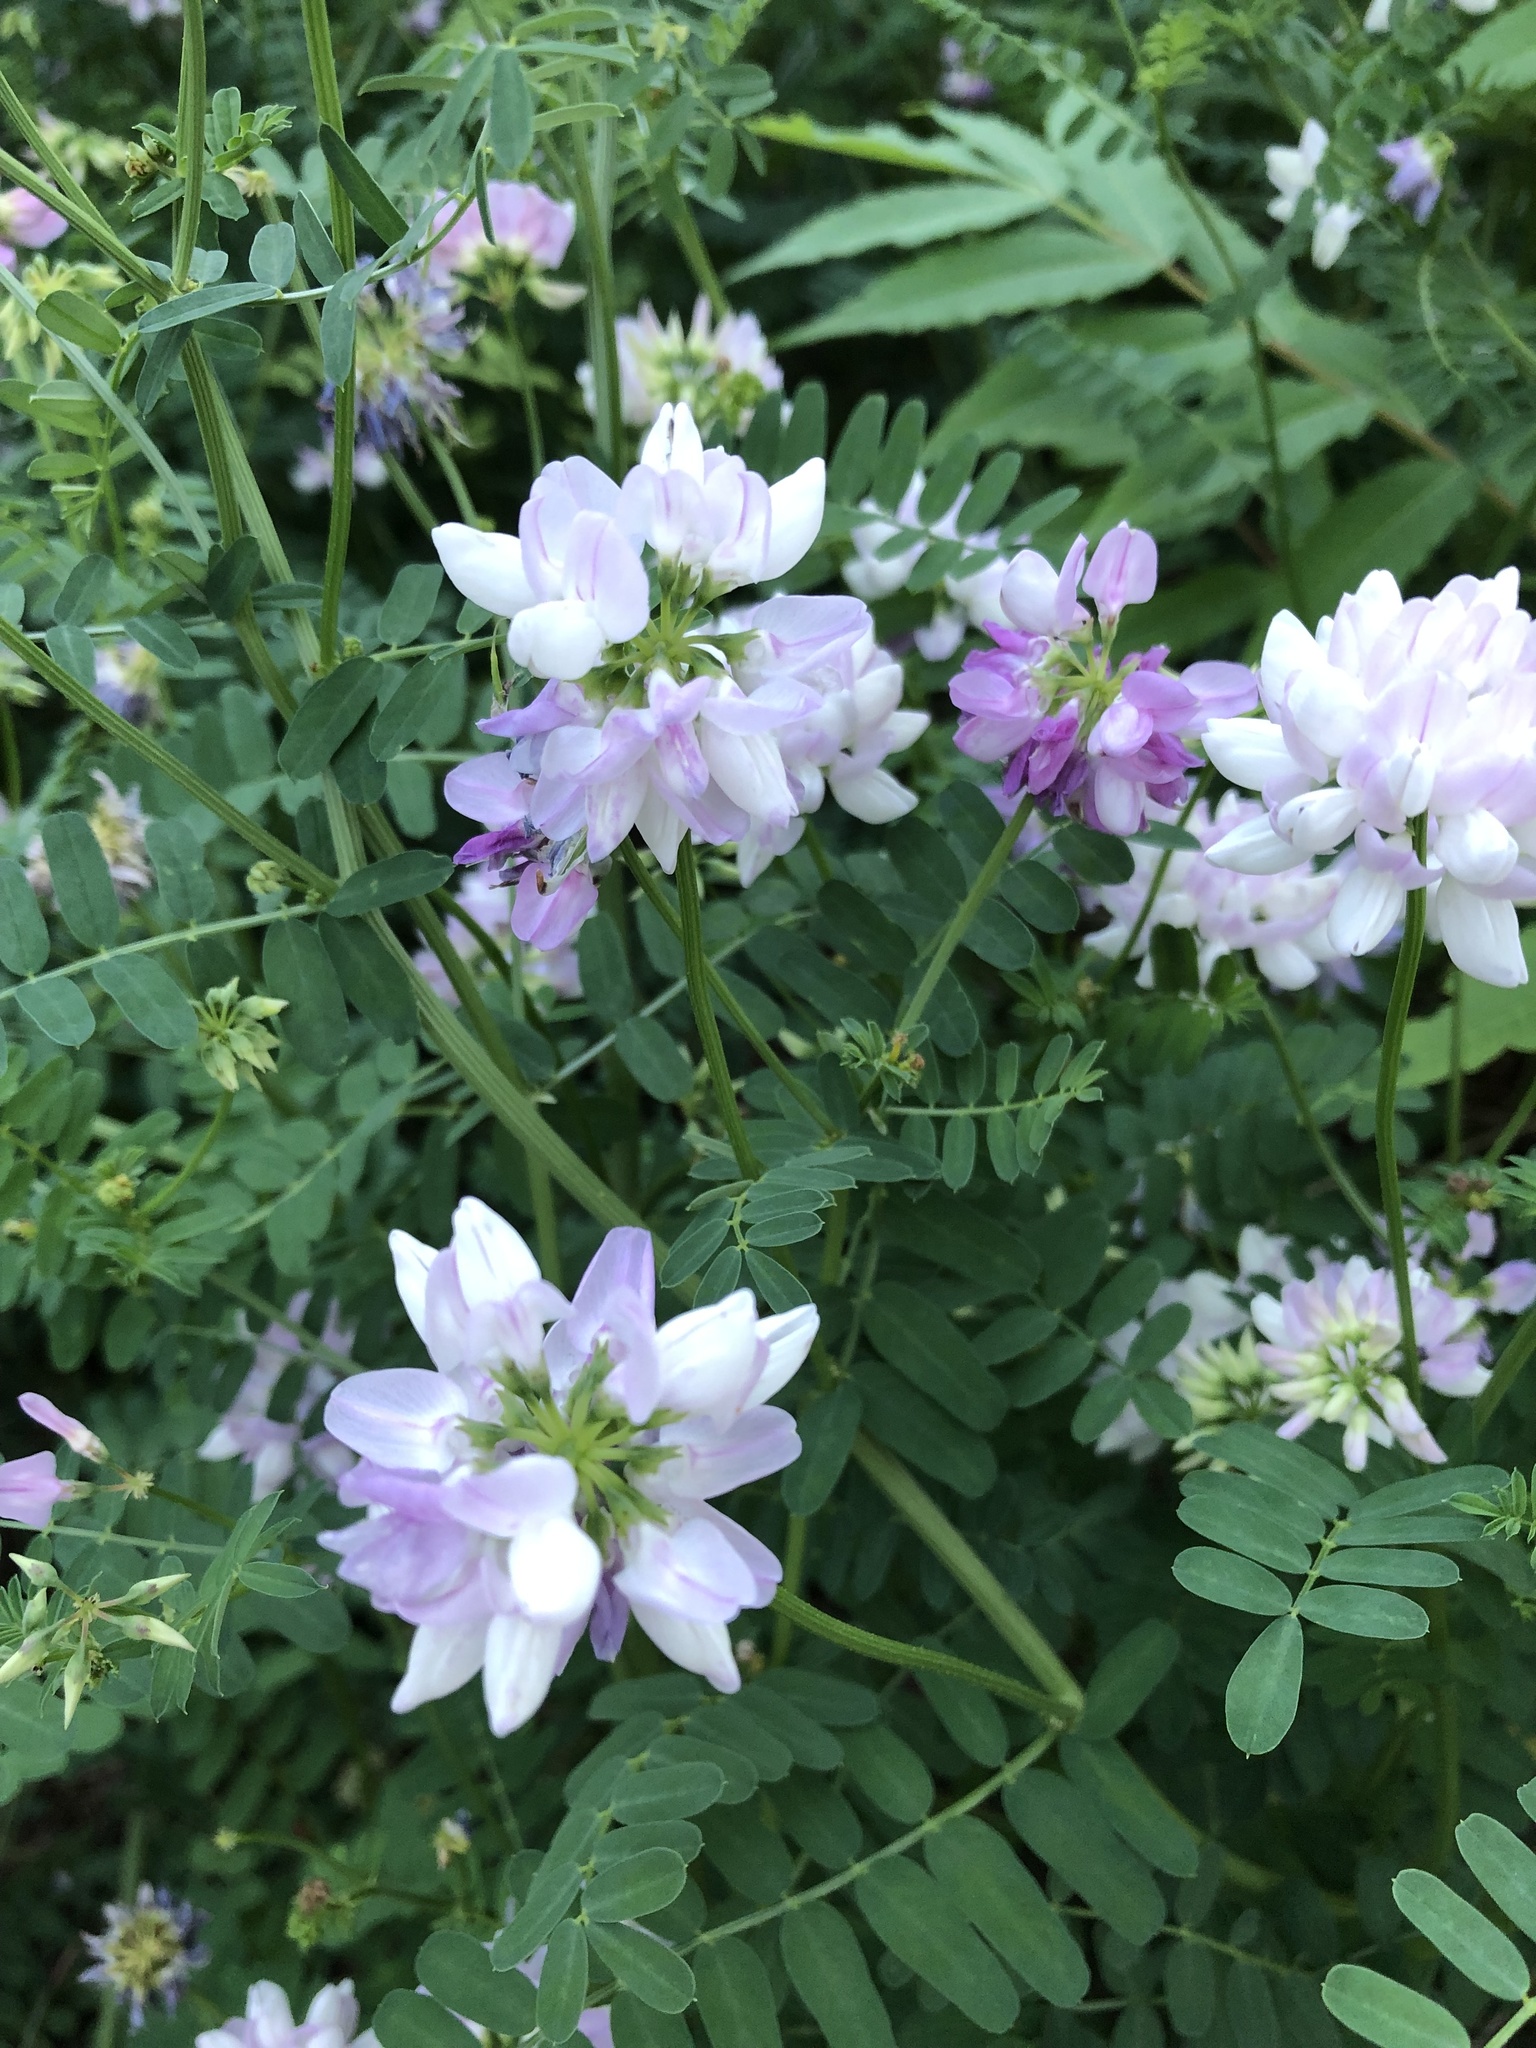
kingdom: Plantae
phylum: Tracheophyta
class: Magnoliopsida
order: Fabales
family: Fabaceae
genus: Coronilla
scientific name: Coronilla varia
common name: Crownvetch
